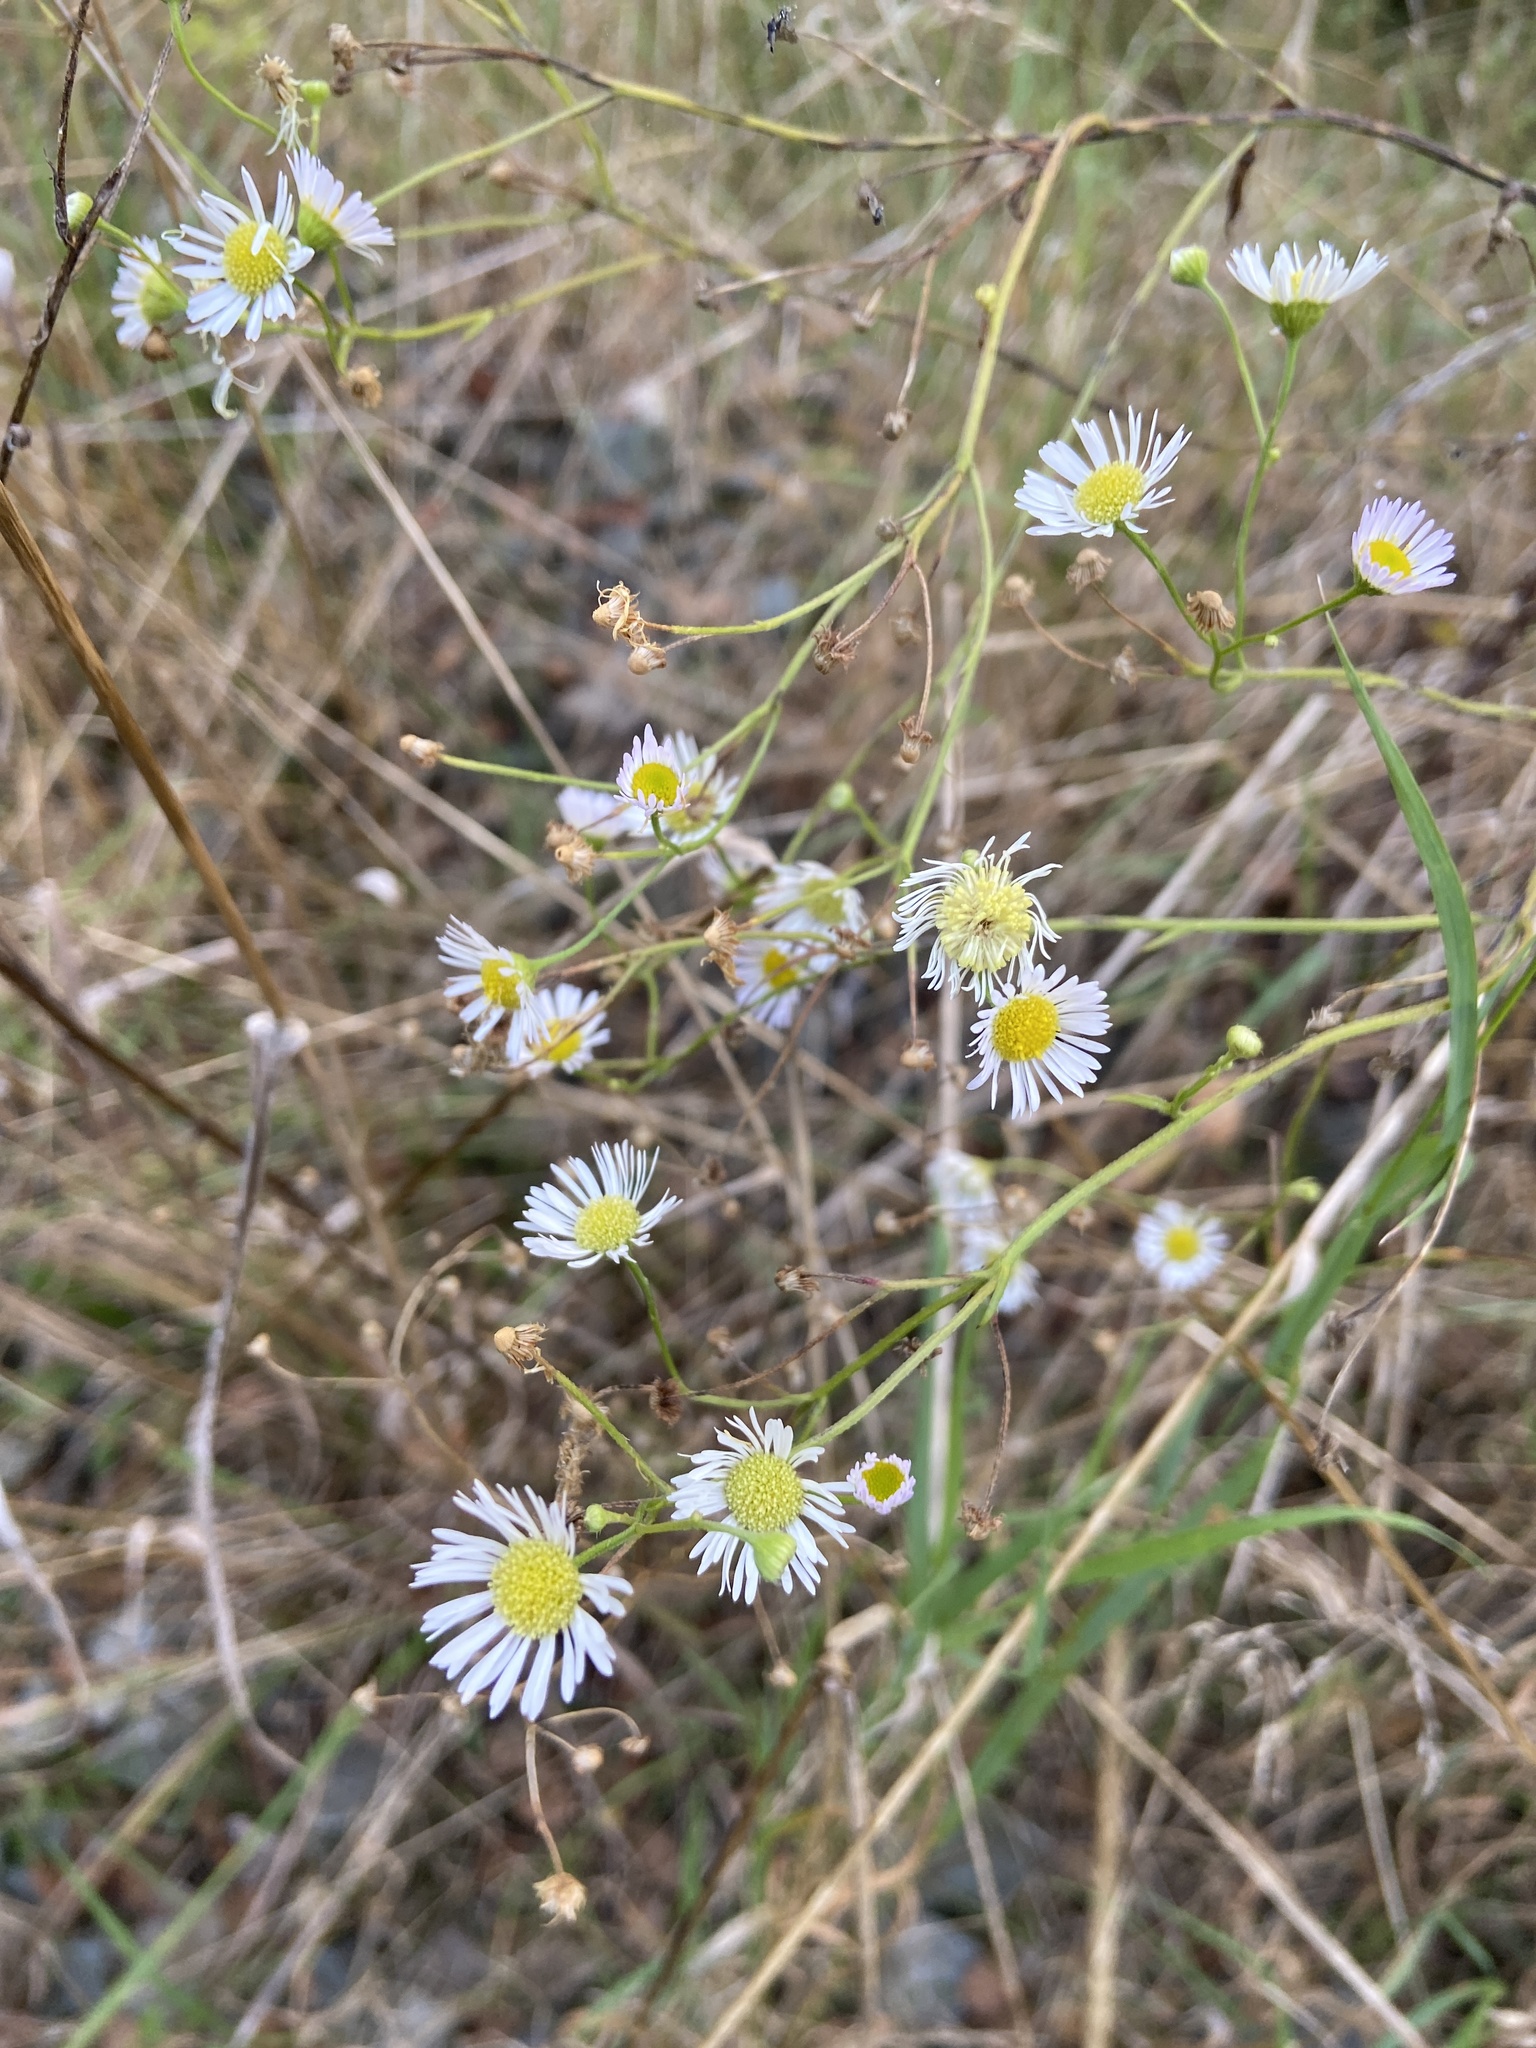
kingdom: Plantae
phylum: Tracheophyta
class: Magnoliopsida
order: Asterales
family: Asteraceae
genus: Erigeron
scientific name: Erigeron annuus
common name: Tall fleabane
